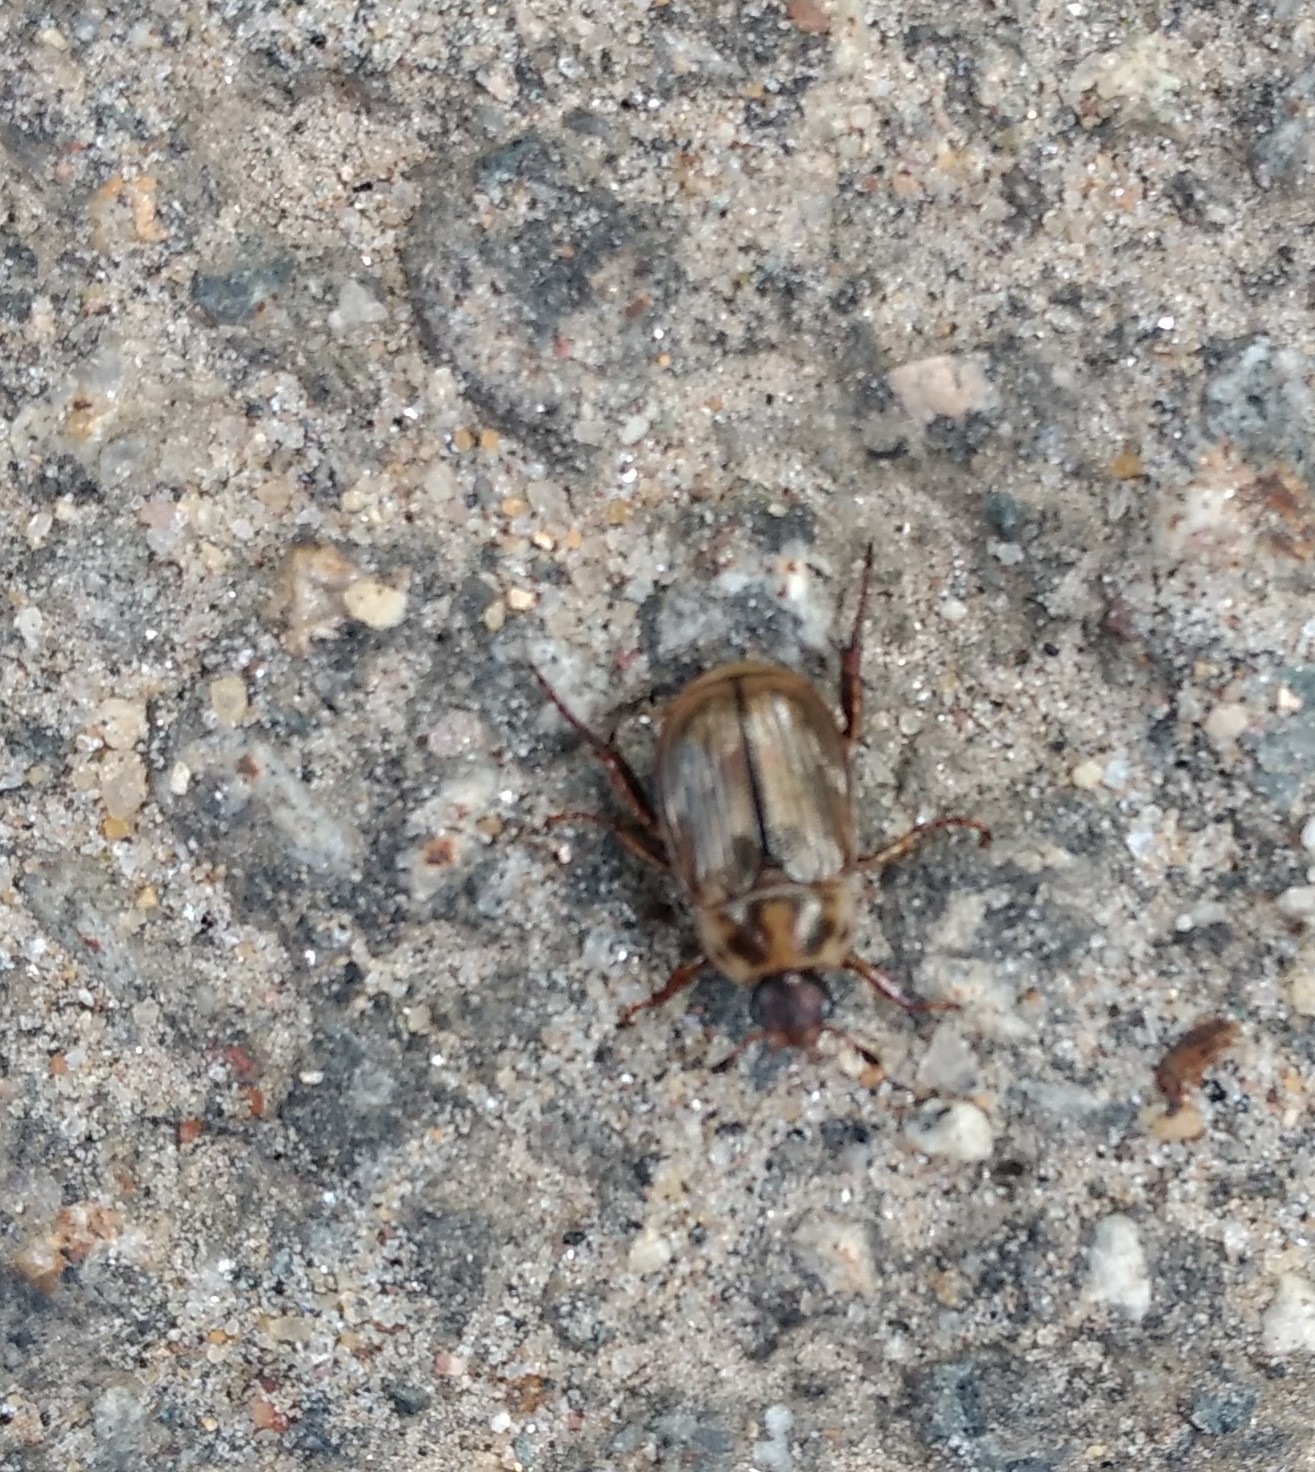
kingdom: Animalia
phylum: Arthropoda
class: Insecta
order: Coleoptera
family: Scarabaeidae
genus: Exomala
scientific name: Exomala orientalis
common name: Oriental beetle
